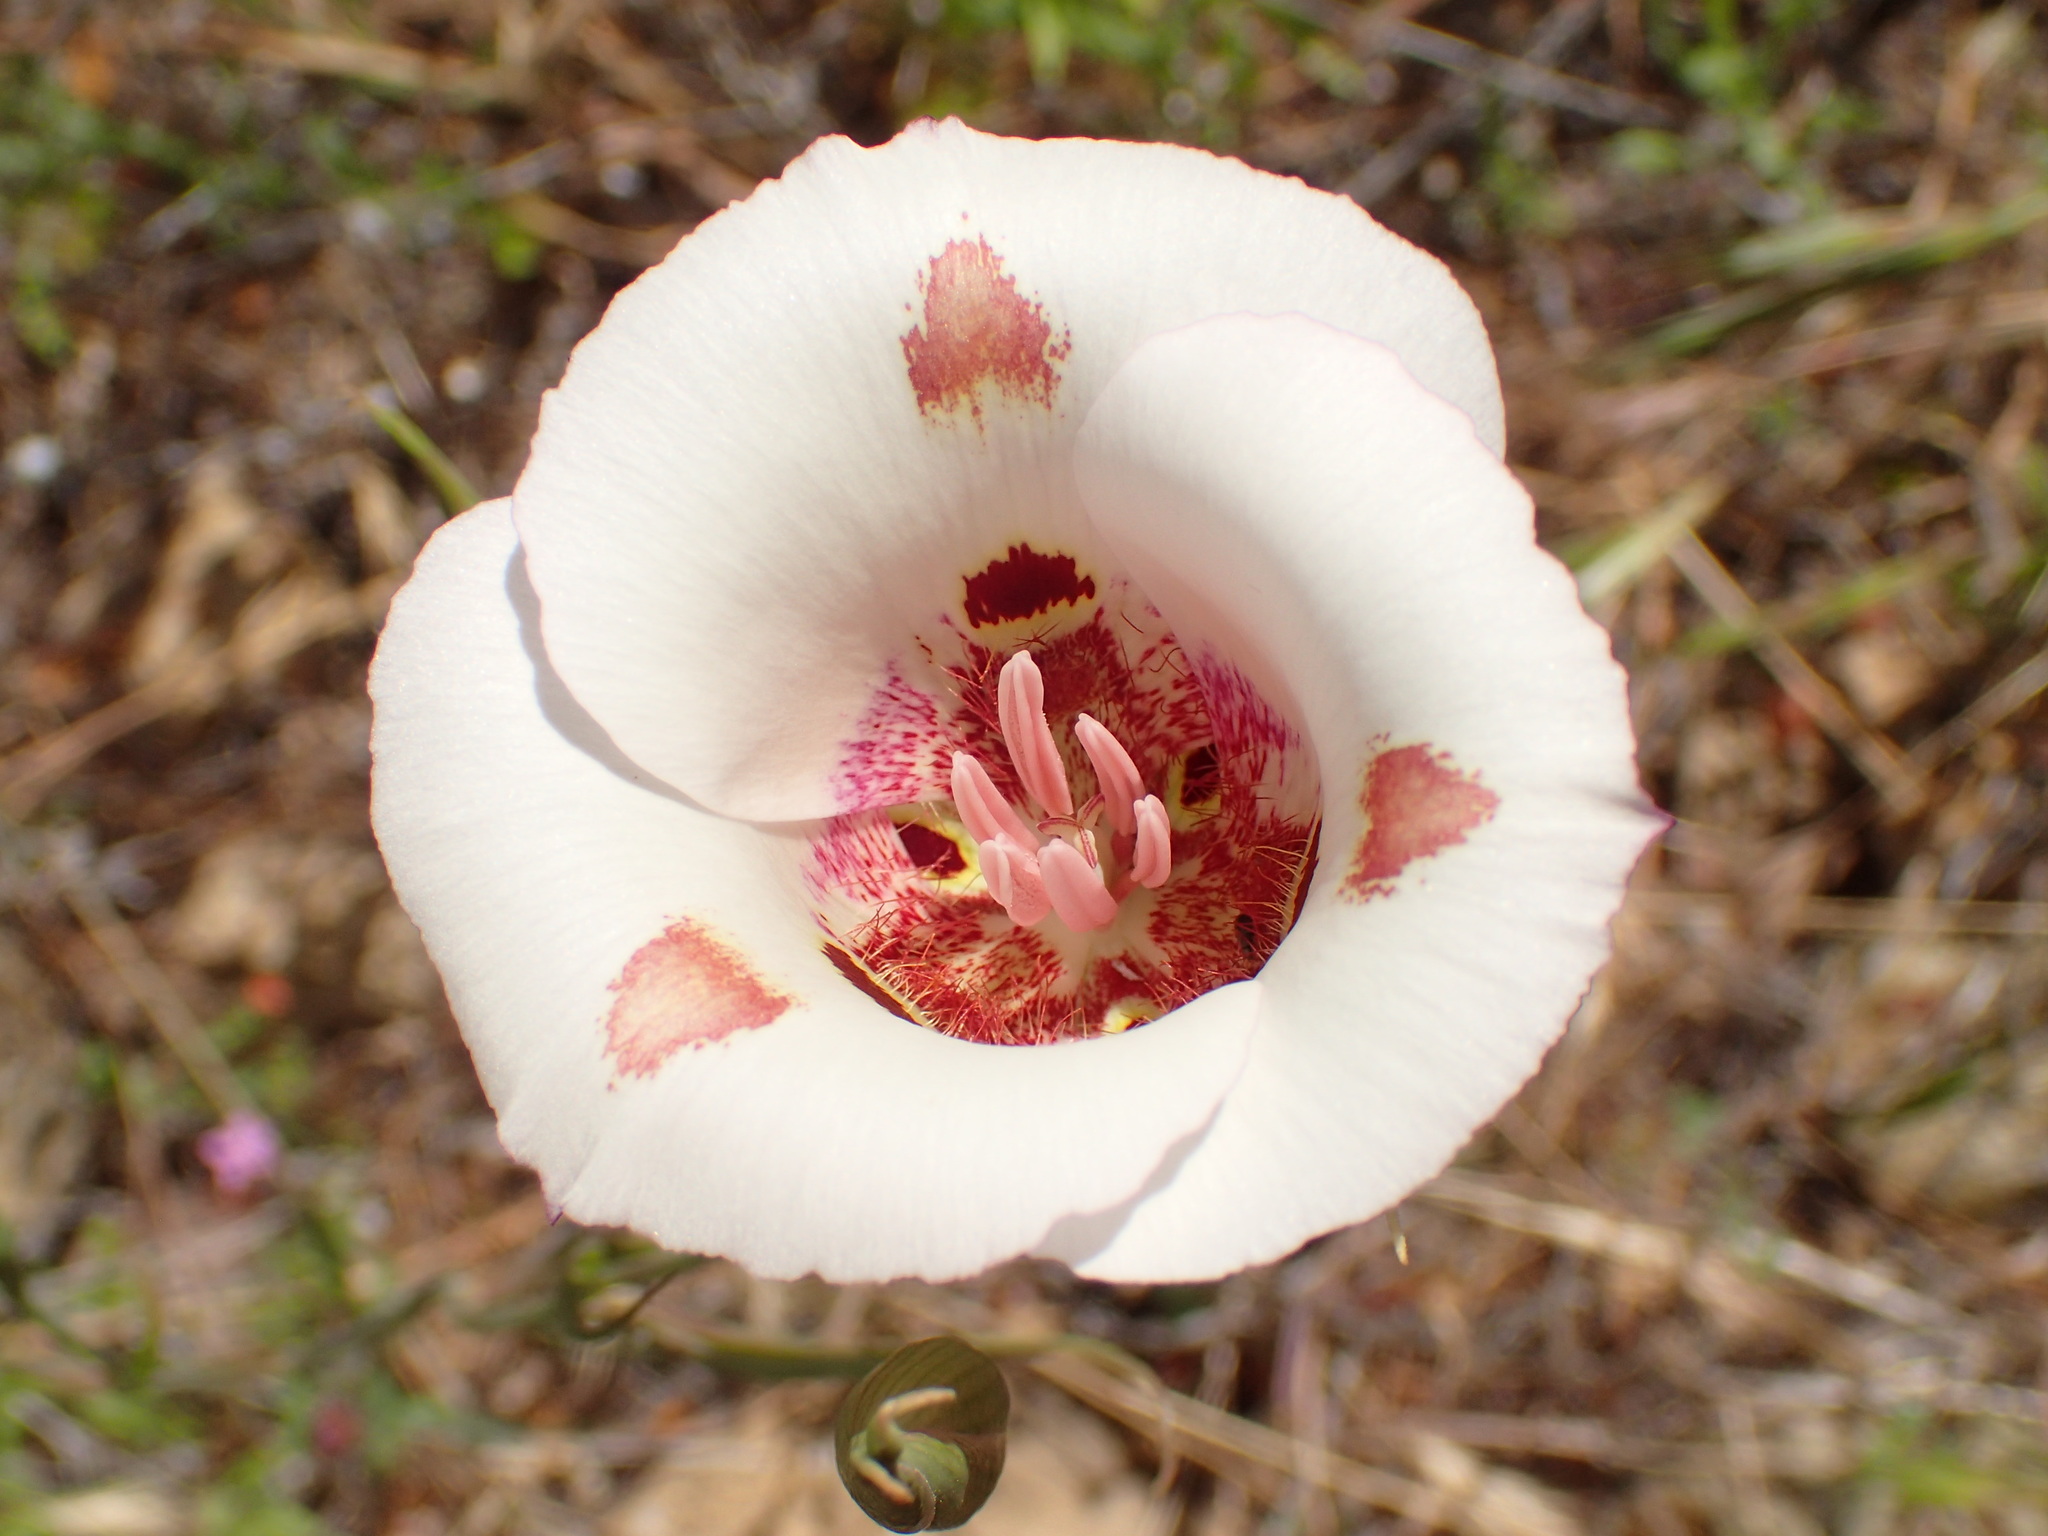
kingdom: Plantae
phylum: Tracheophyta
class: Liliopsida
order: Liliales
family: Liliaceae
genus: Calochortus
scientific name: Calochortus venustus
